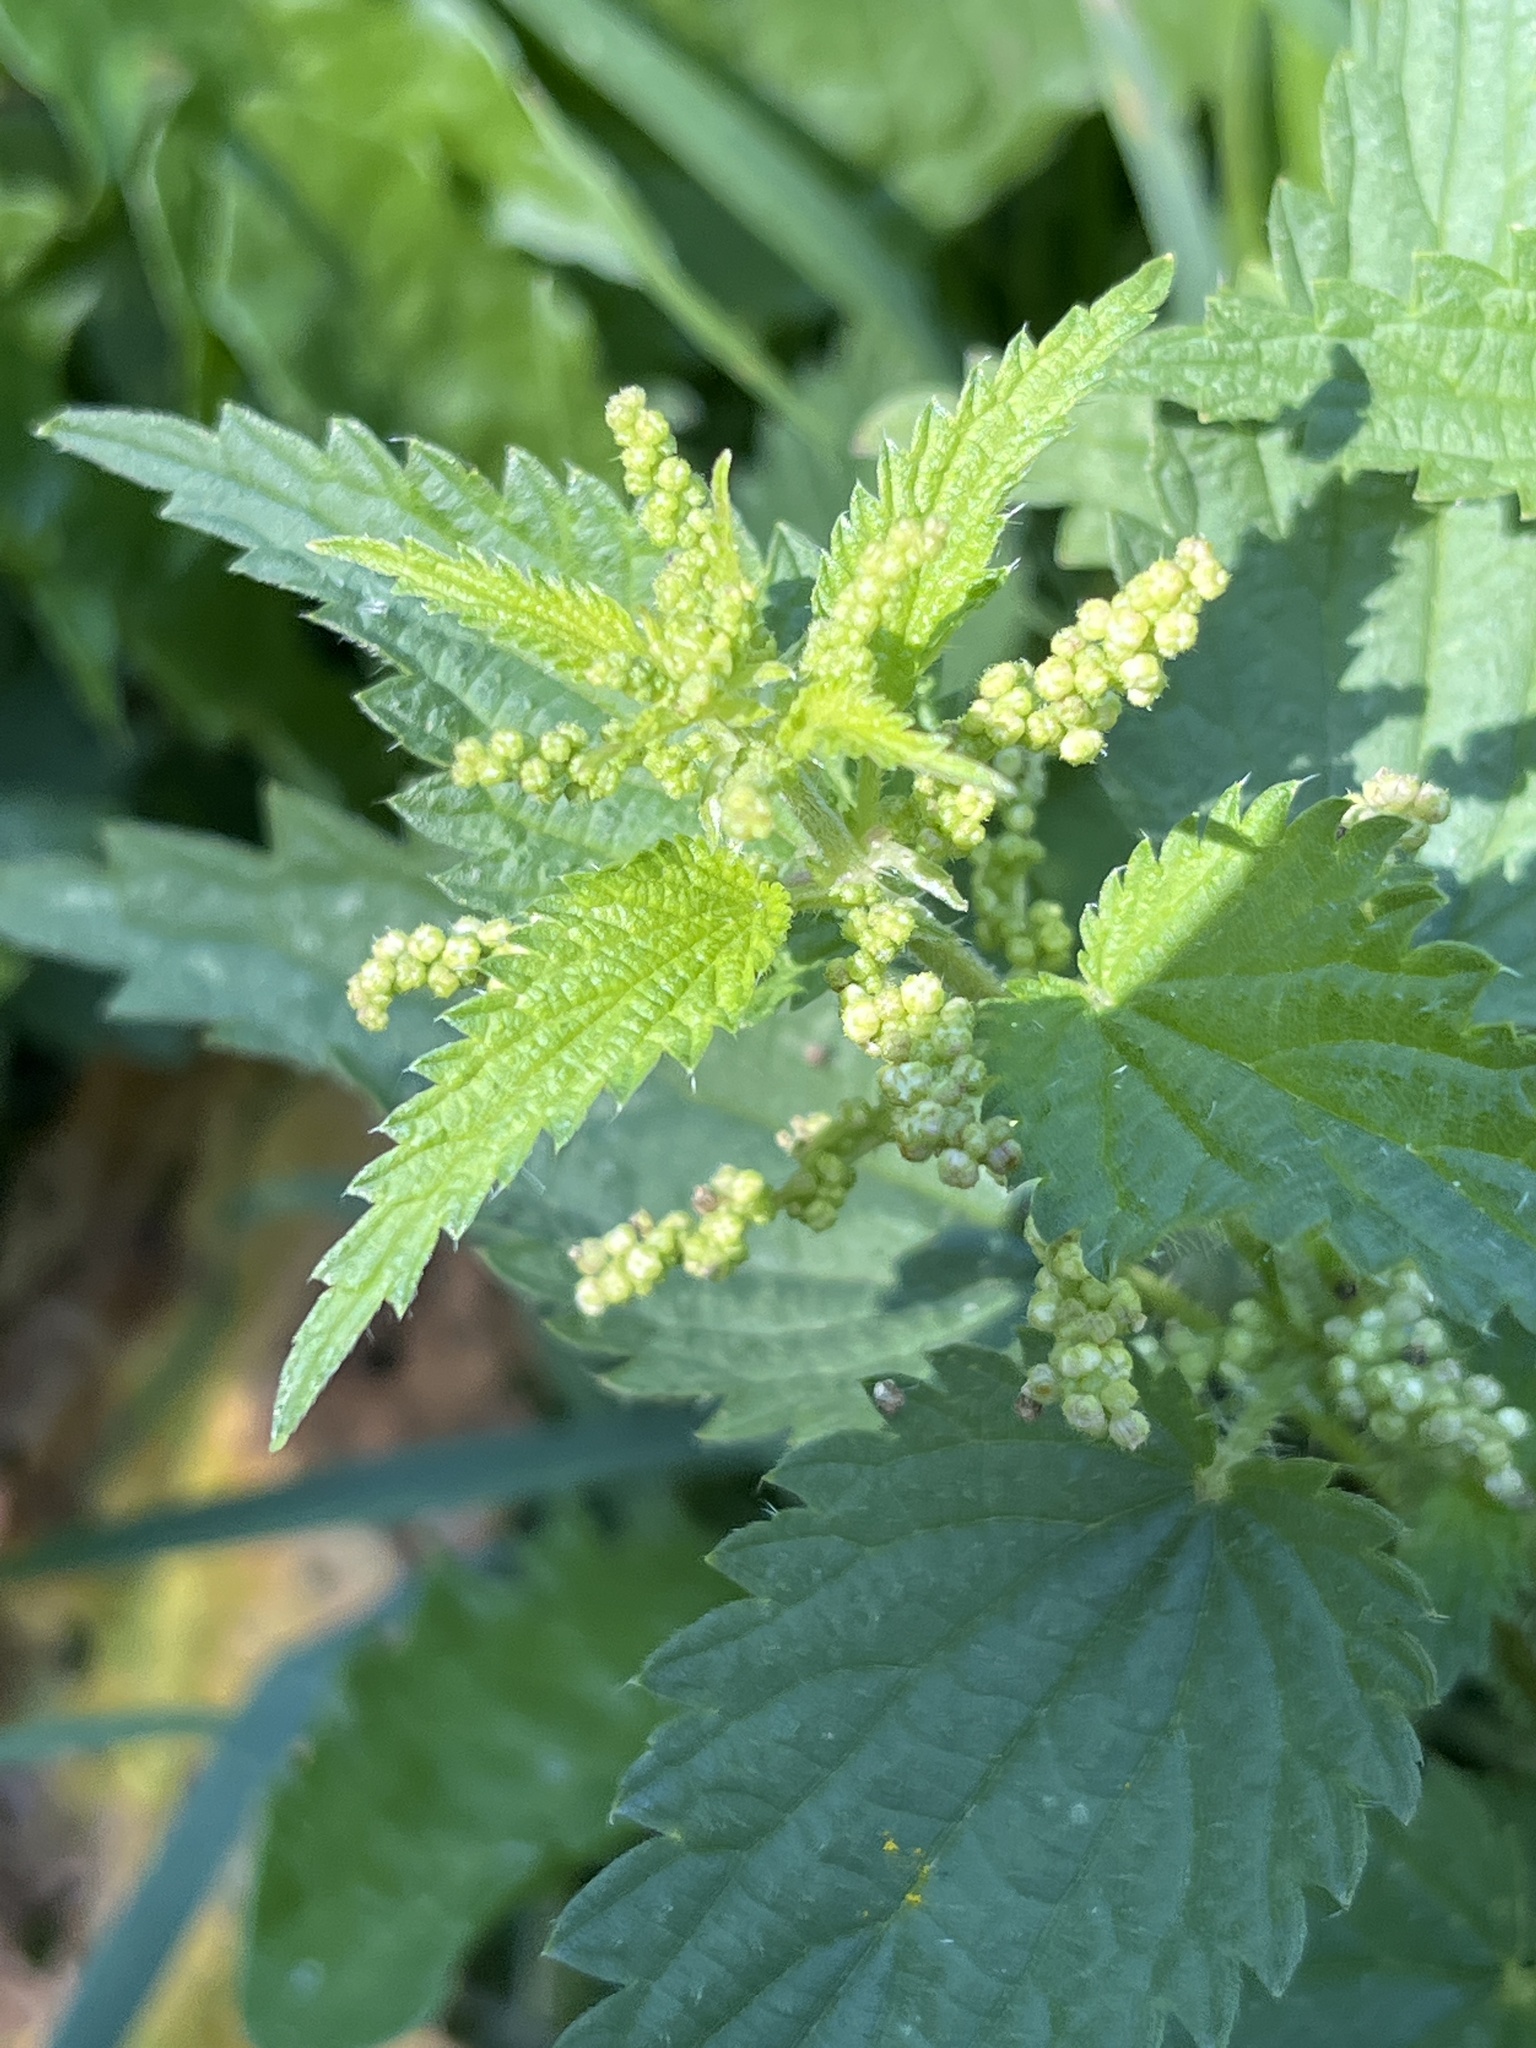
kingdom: Plantae
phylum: Tracheophyta
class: Magnoliopsida
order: Rosales
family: Urticaceae
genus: Urtica
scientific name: Urtica dioica
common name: Common nettle
